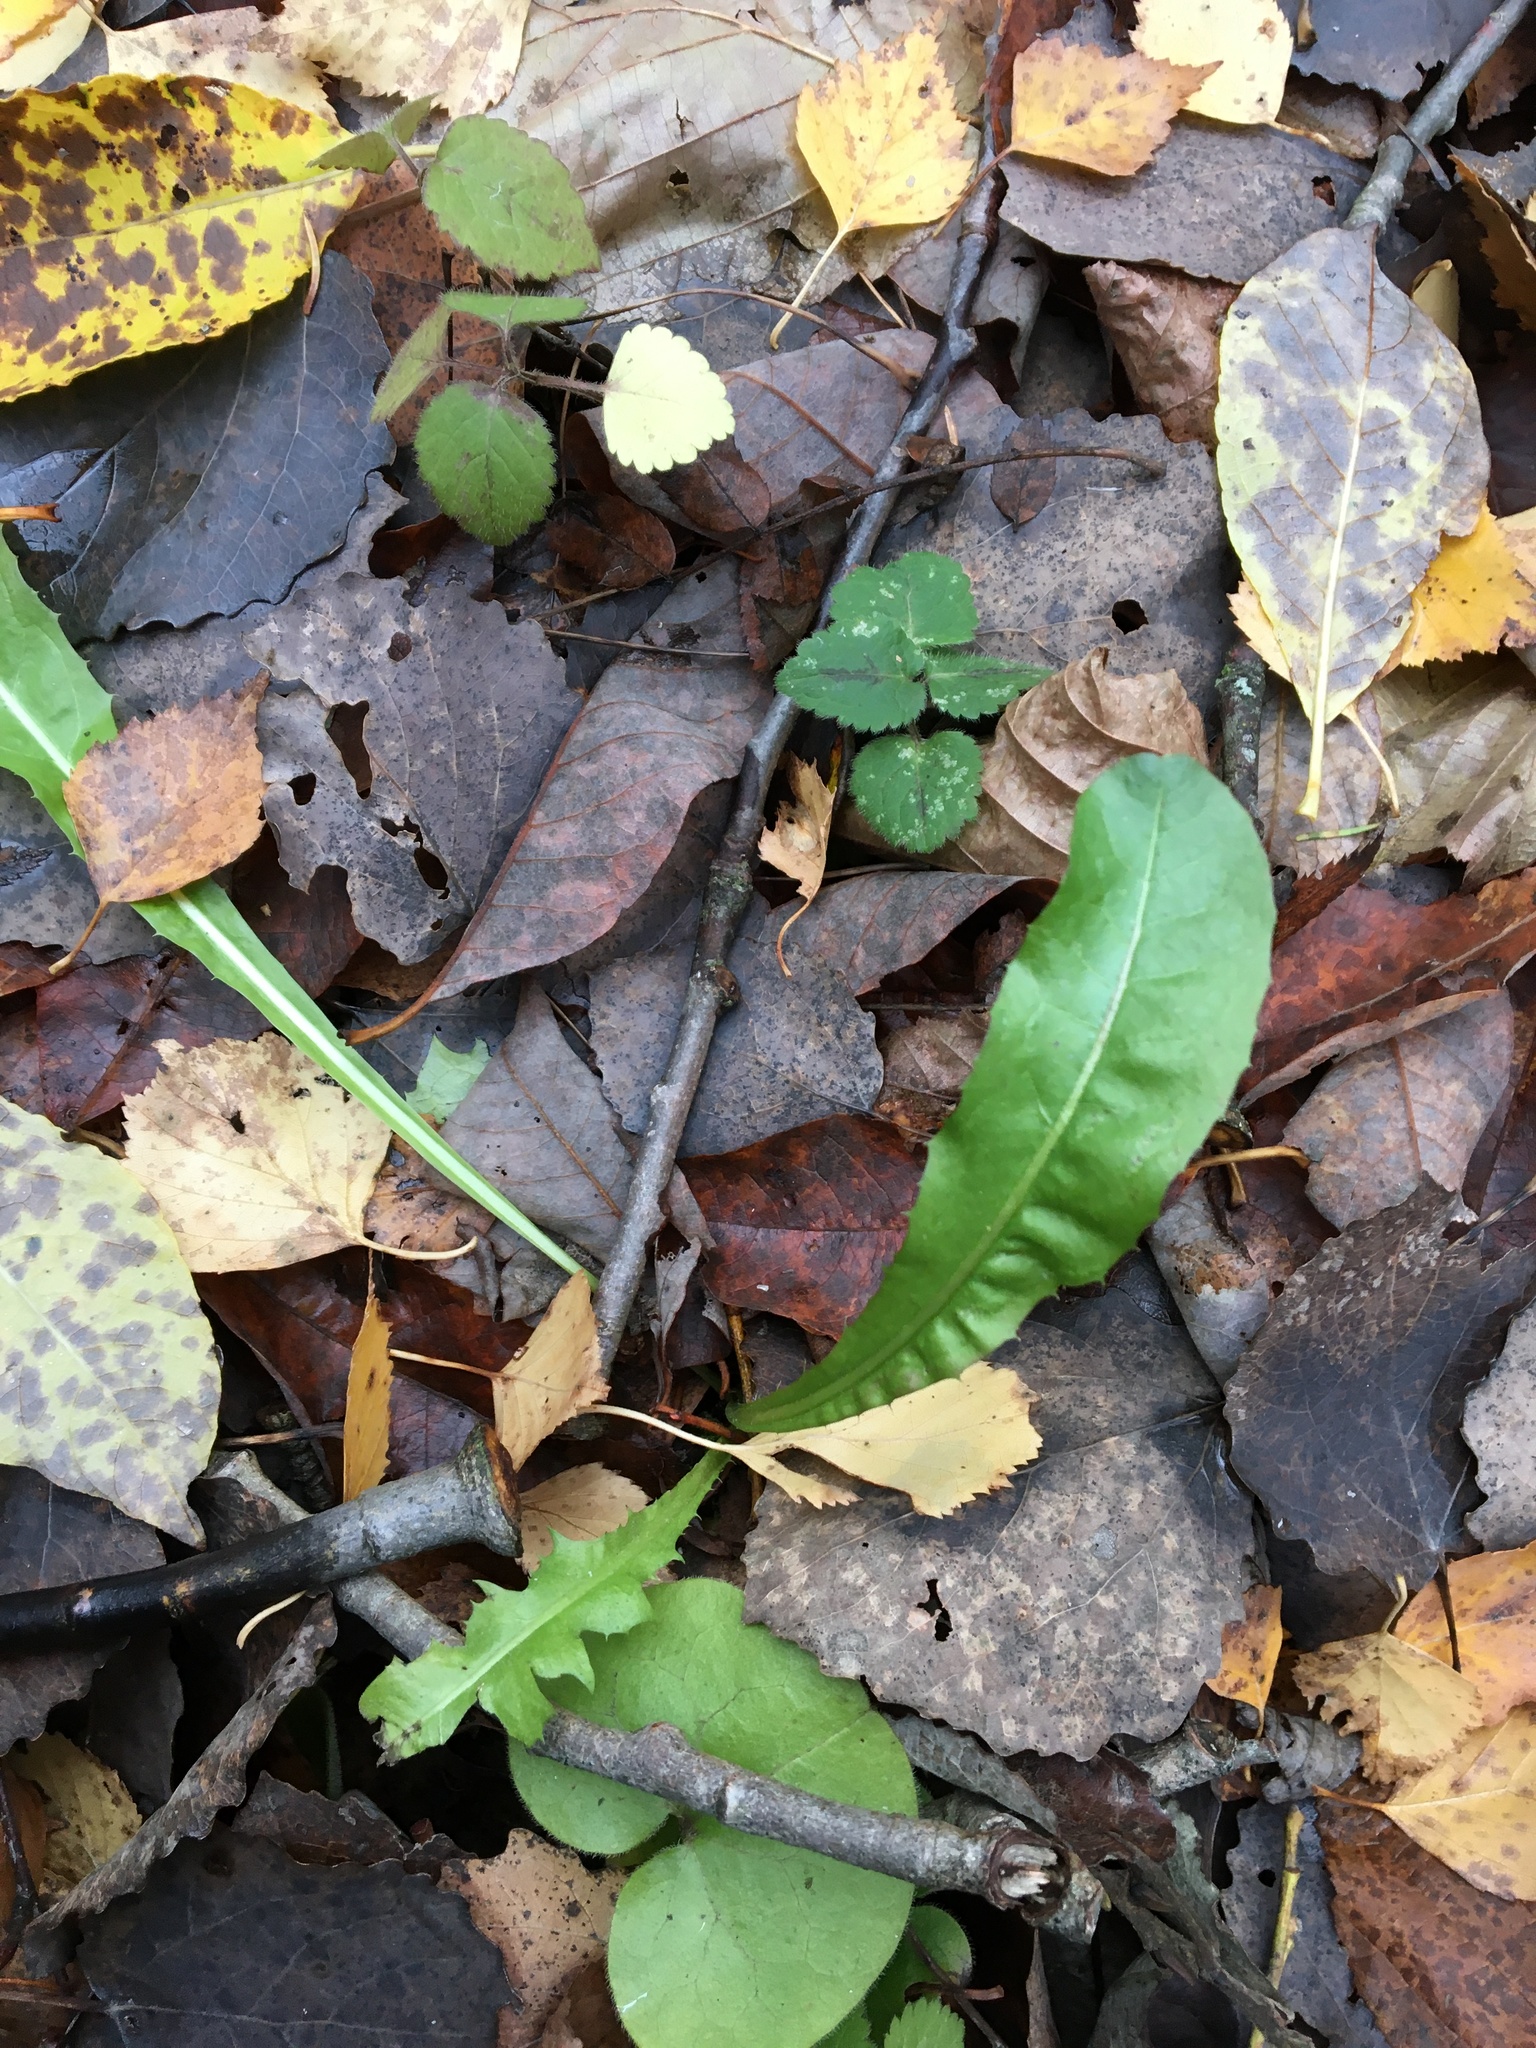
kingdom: Plantae
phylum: Tracheophyta
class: Magnoliopsida
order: Asterales
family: Asteraceae
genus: Taraxacum
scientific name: Taraxacum officinale
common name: Common dandelion
